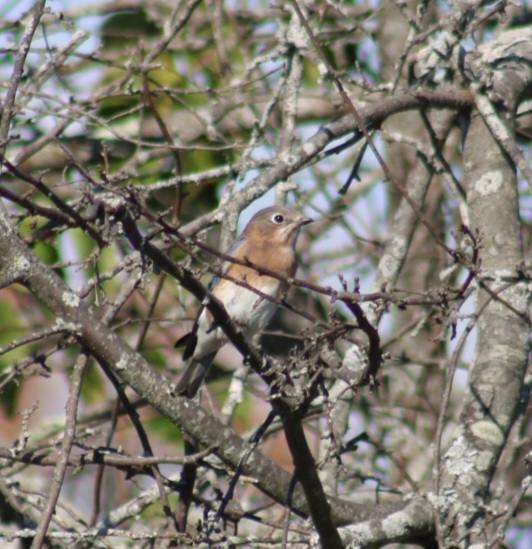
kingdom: Animalia
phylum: Chordata
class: Aves
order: Passeriformes
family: Turdidae
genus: Sialia
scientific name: Sialia sialis
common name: Eastern bluebird
